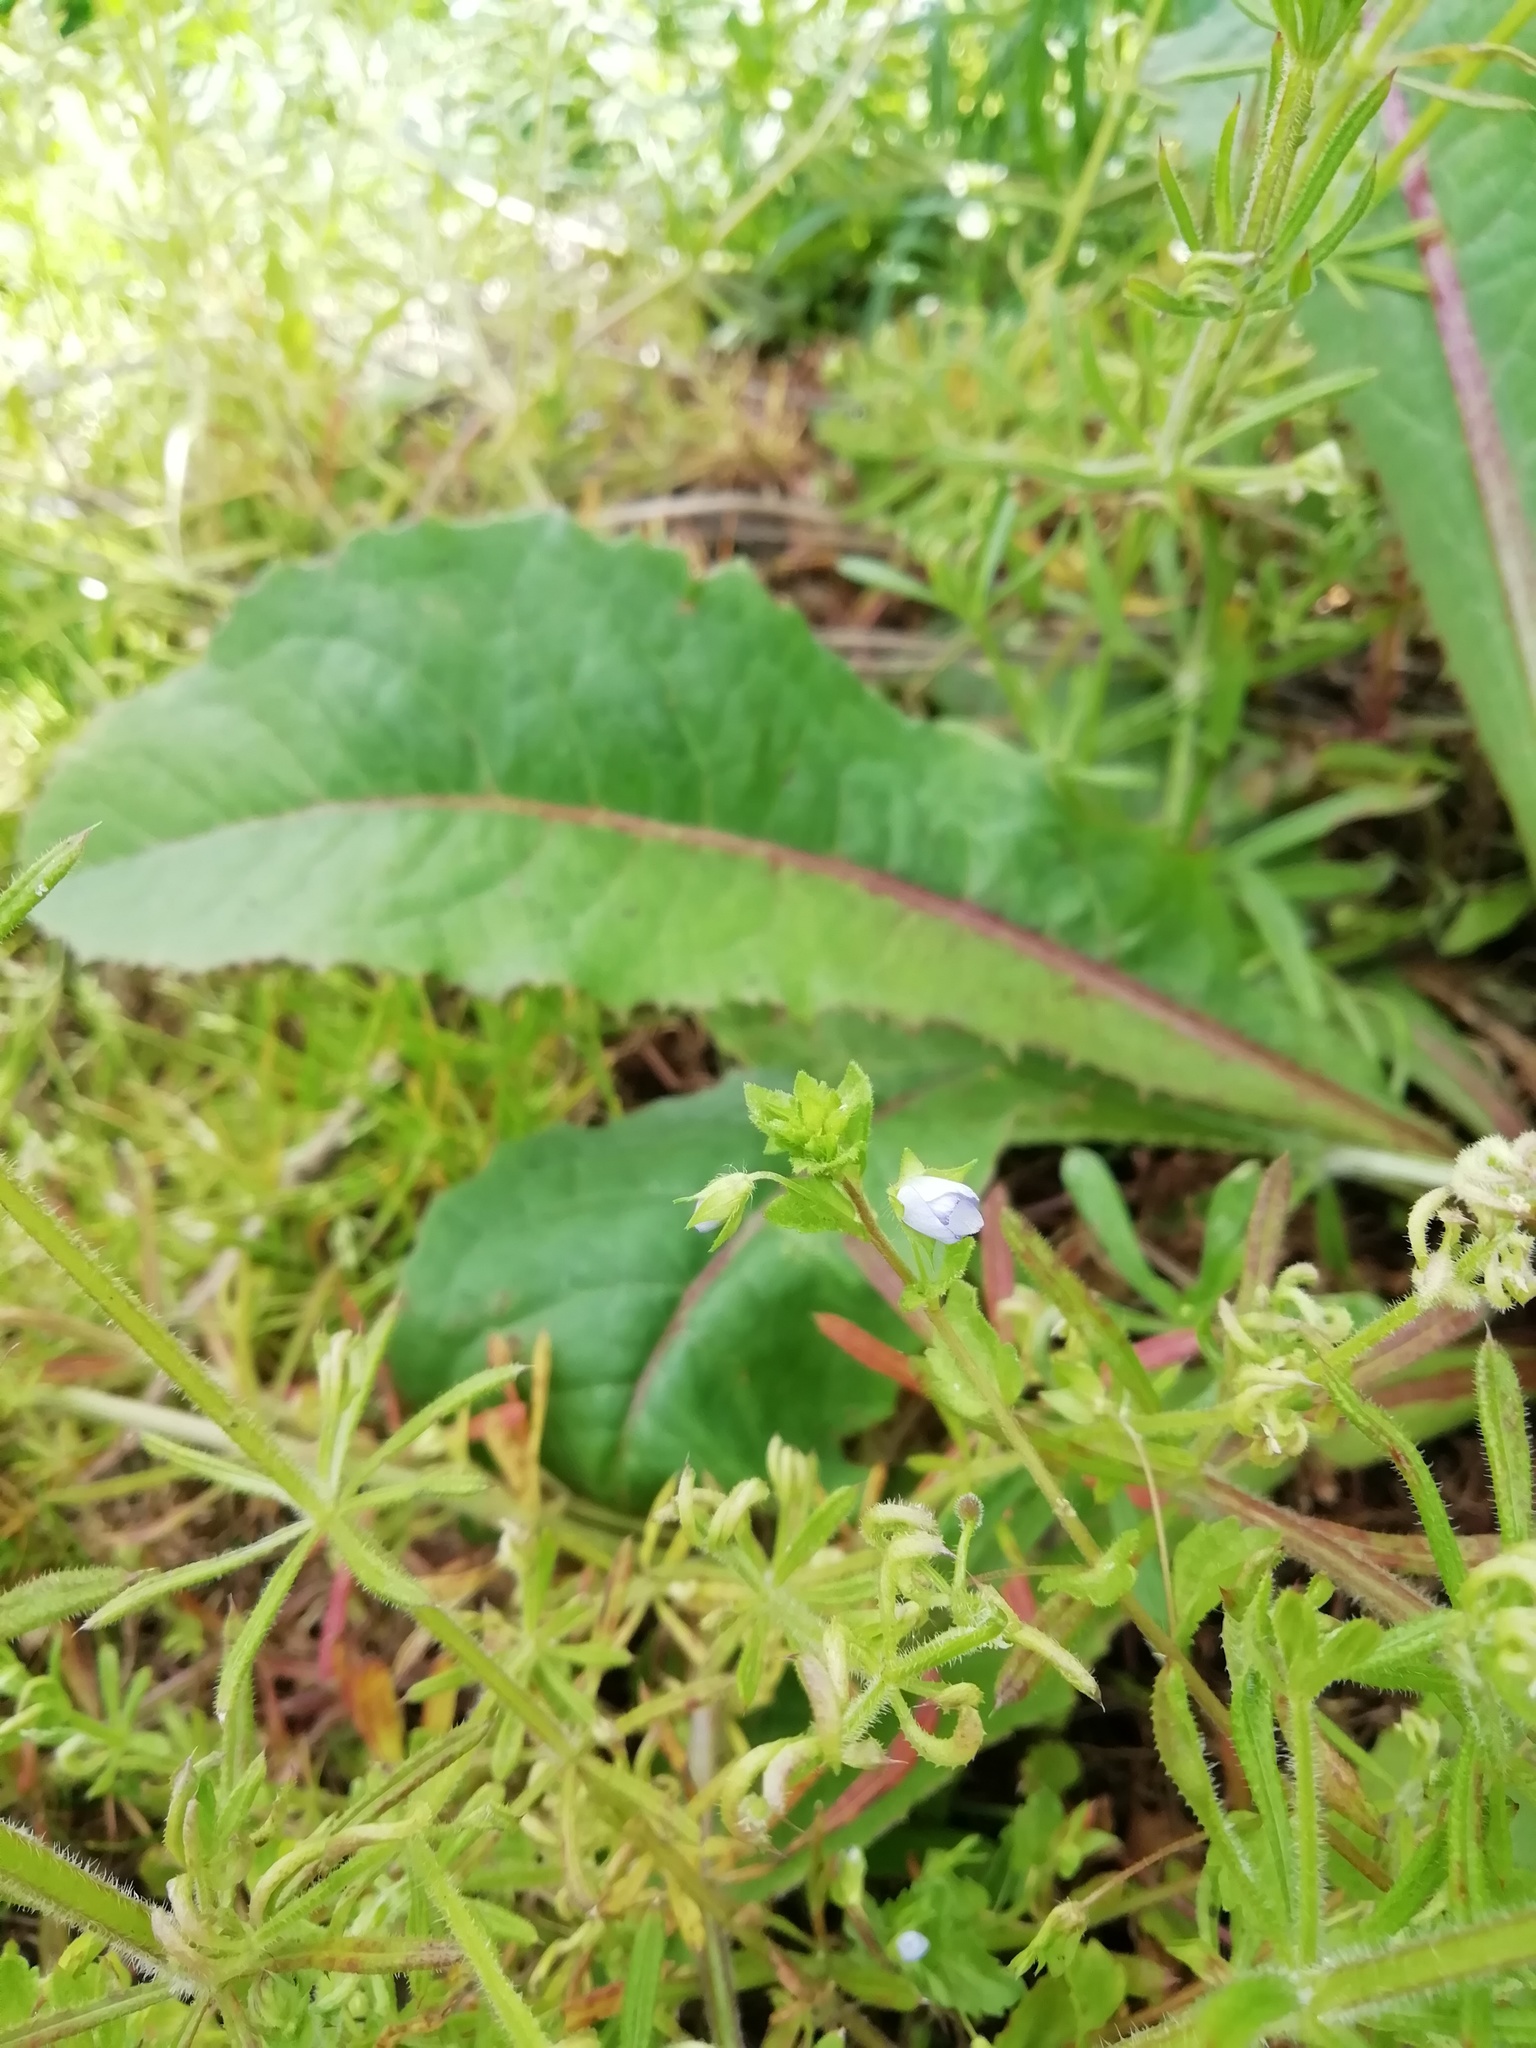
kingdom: Plantae
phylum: Tracheophyta
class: Magnoliopsida
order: Lamiales
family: Plantaginaceae
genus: Veronica
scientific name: Veronica persica
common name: Common field-speedwell
